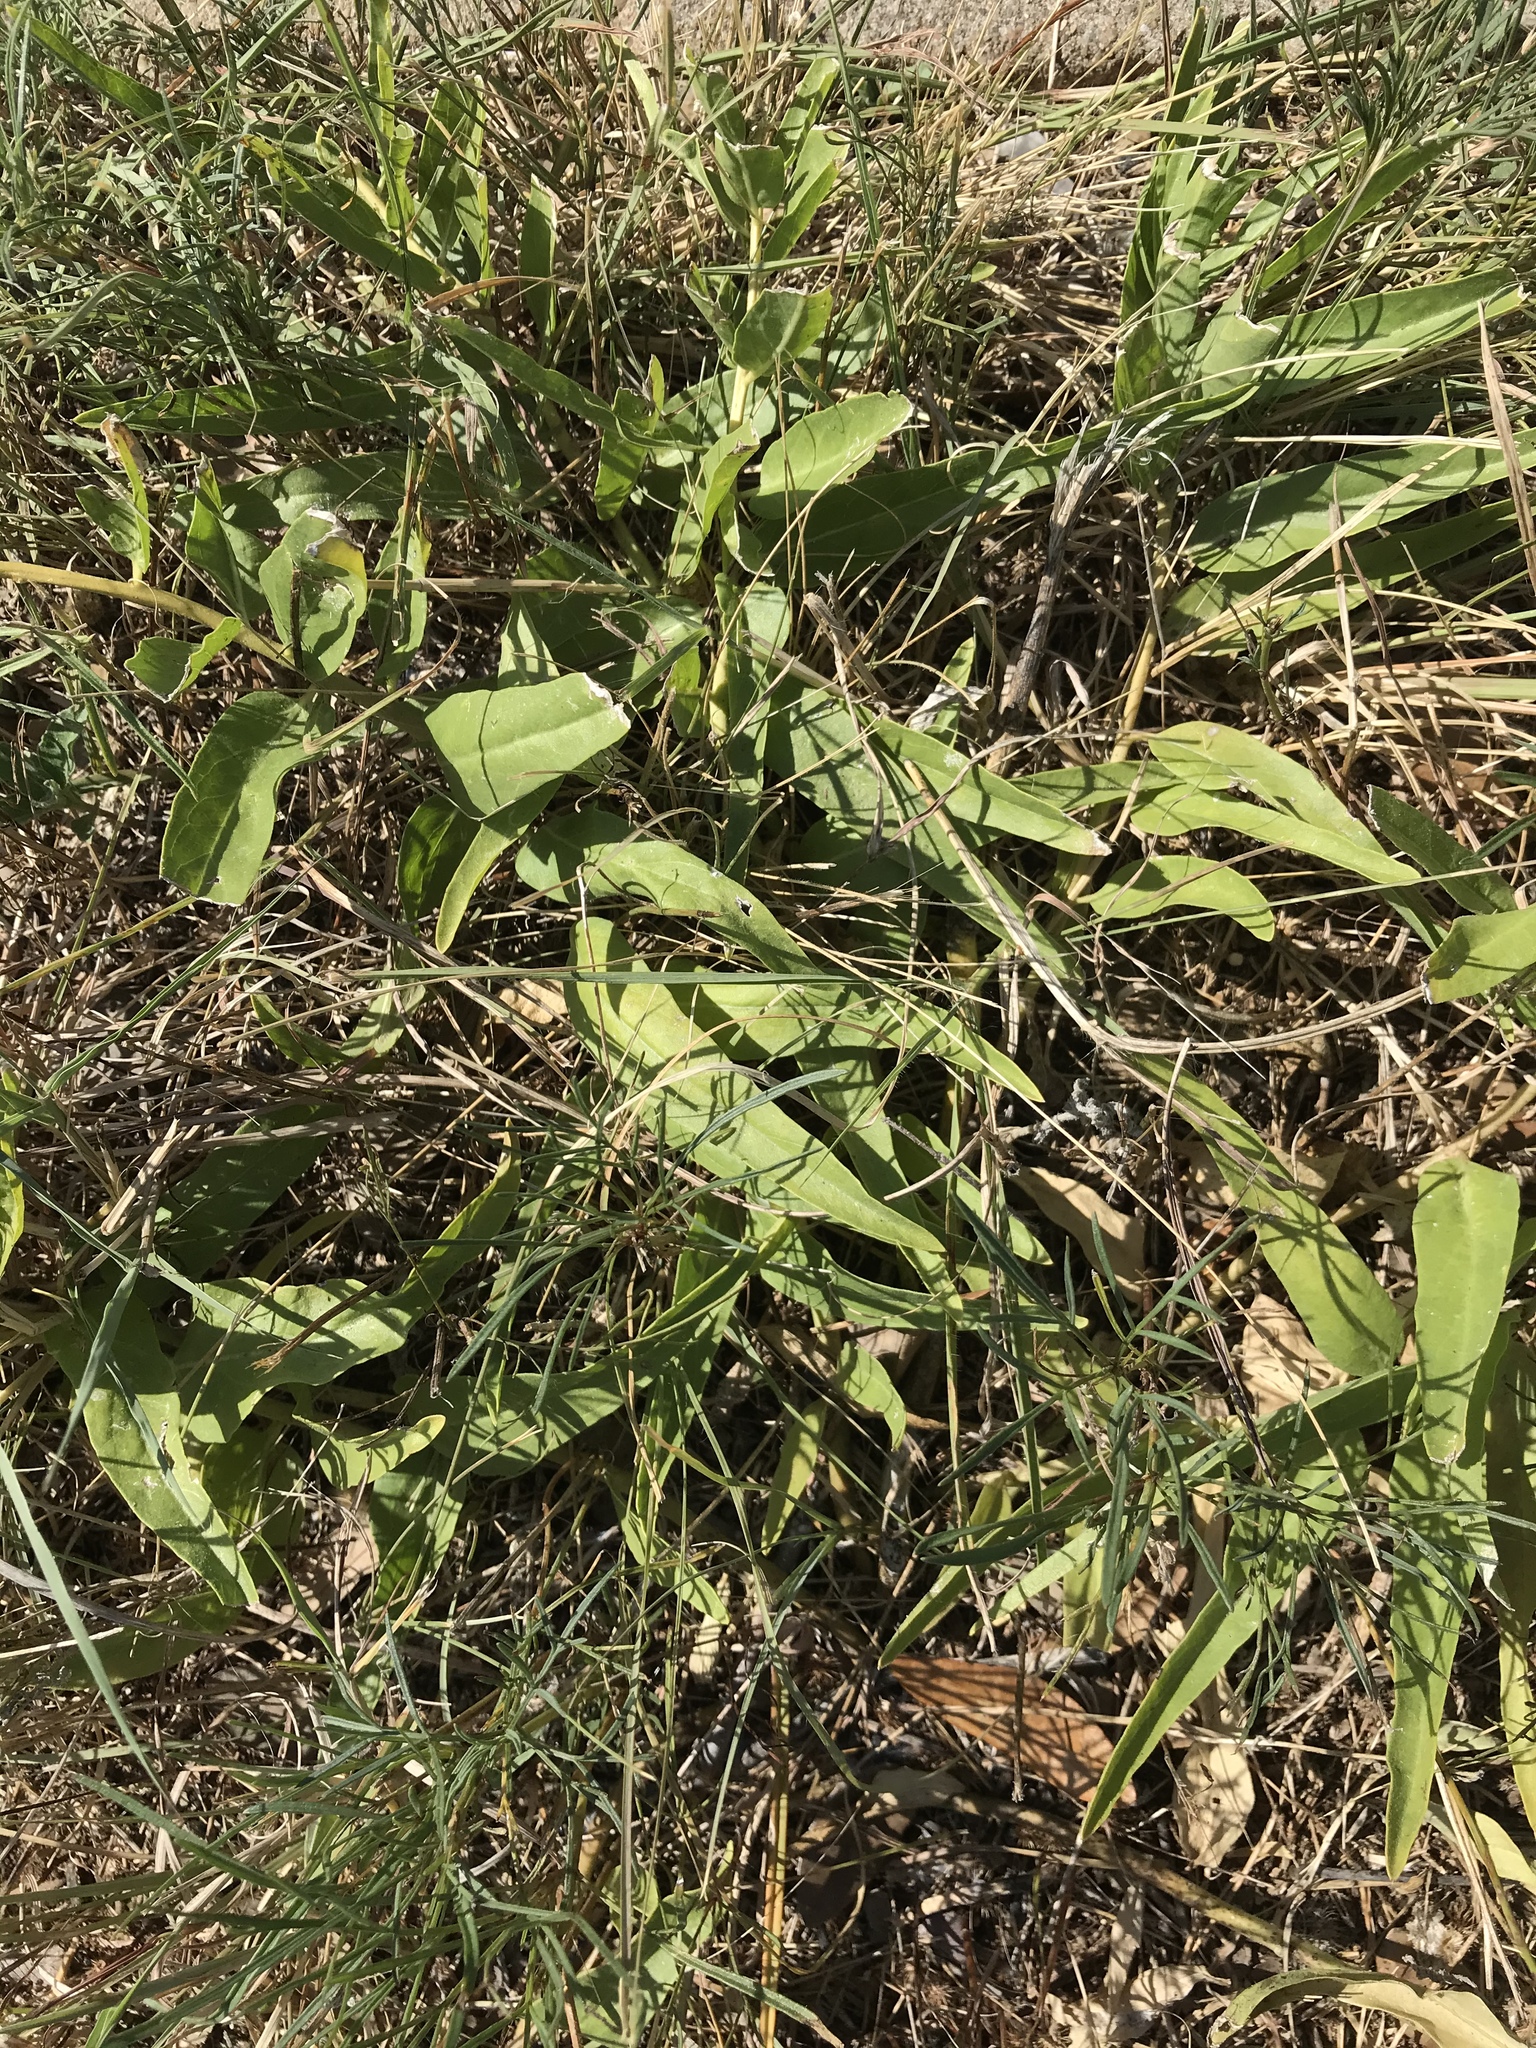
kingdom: Plantae
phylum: Tracheophyta
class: Magnoliopsida
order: Gentianales
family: Apocynaceae
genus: Asclepias
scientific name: Asclepias asperula
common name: Antelope horns
